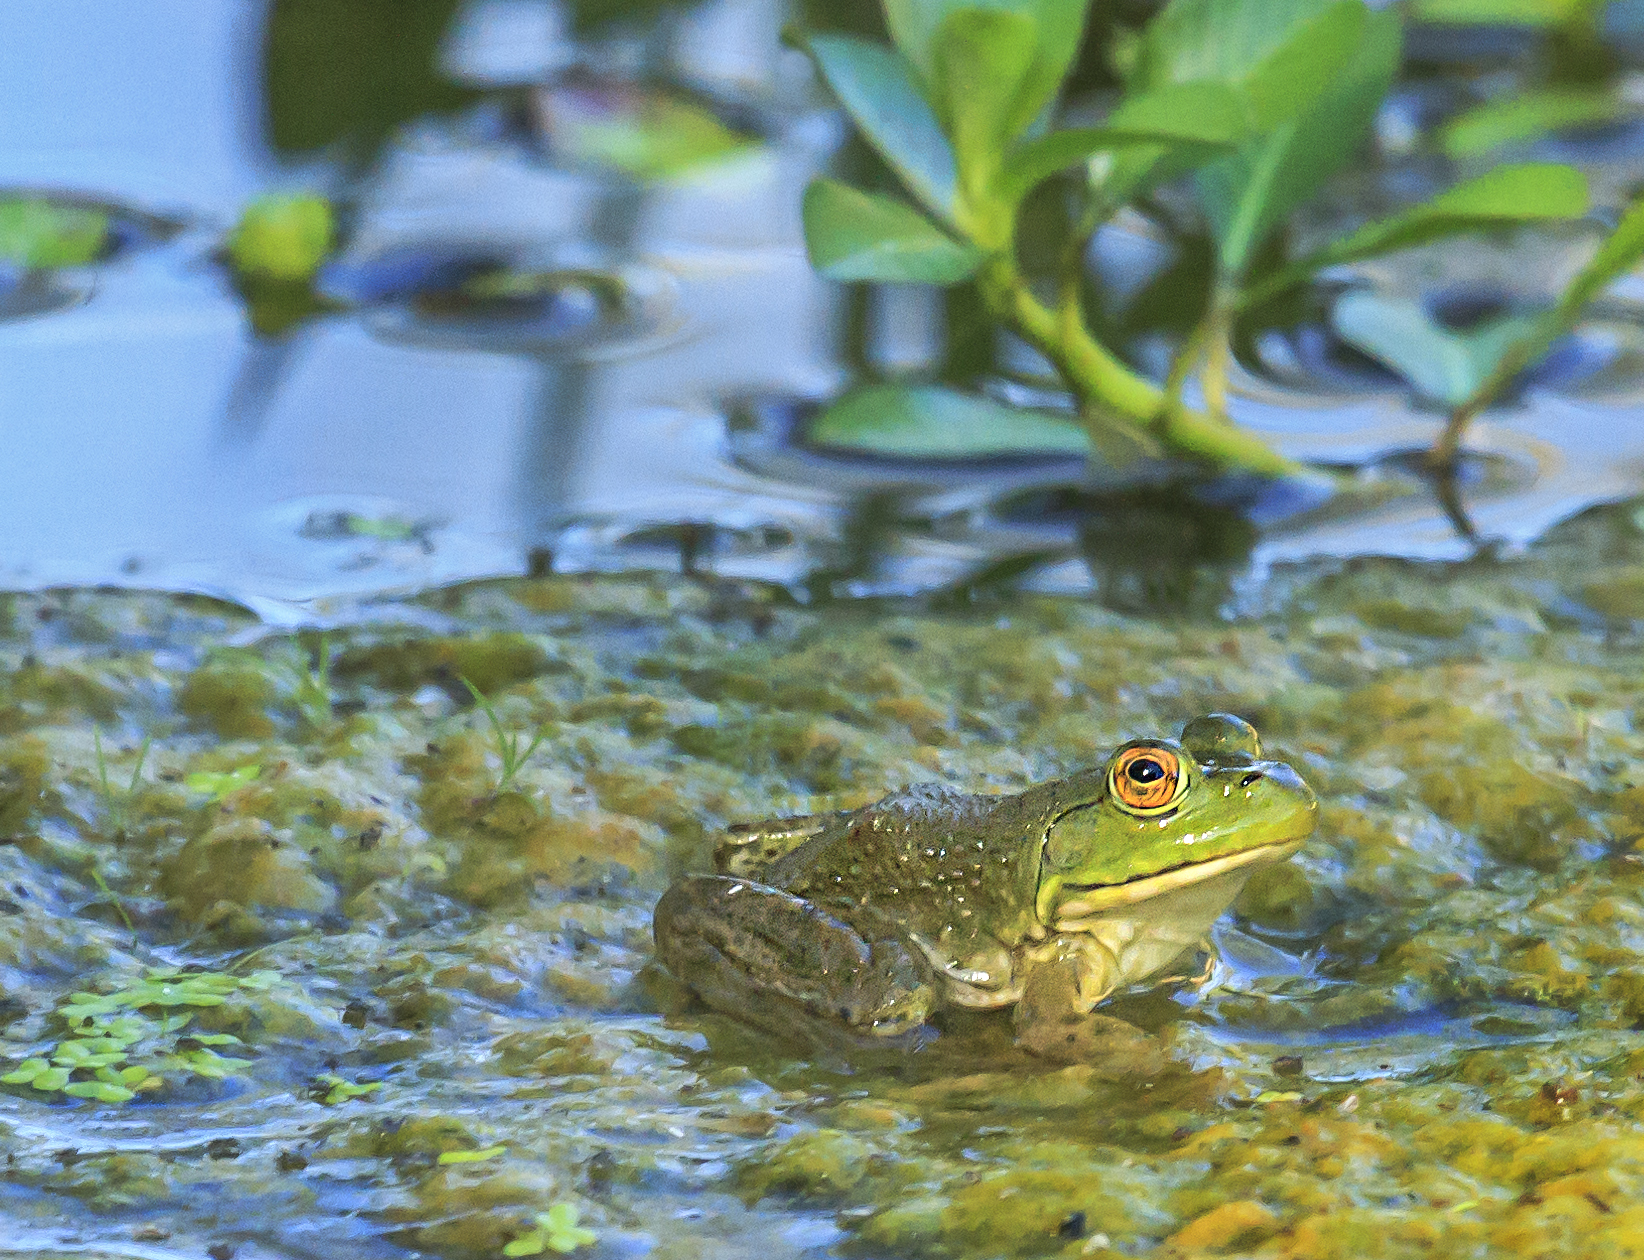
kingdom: Animalia
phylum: Chordata
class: Amphibia
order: Anura
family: Ranidae
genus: Lithobates
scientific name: Lithobates catesbeianus
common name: American bullfrog
